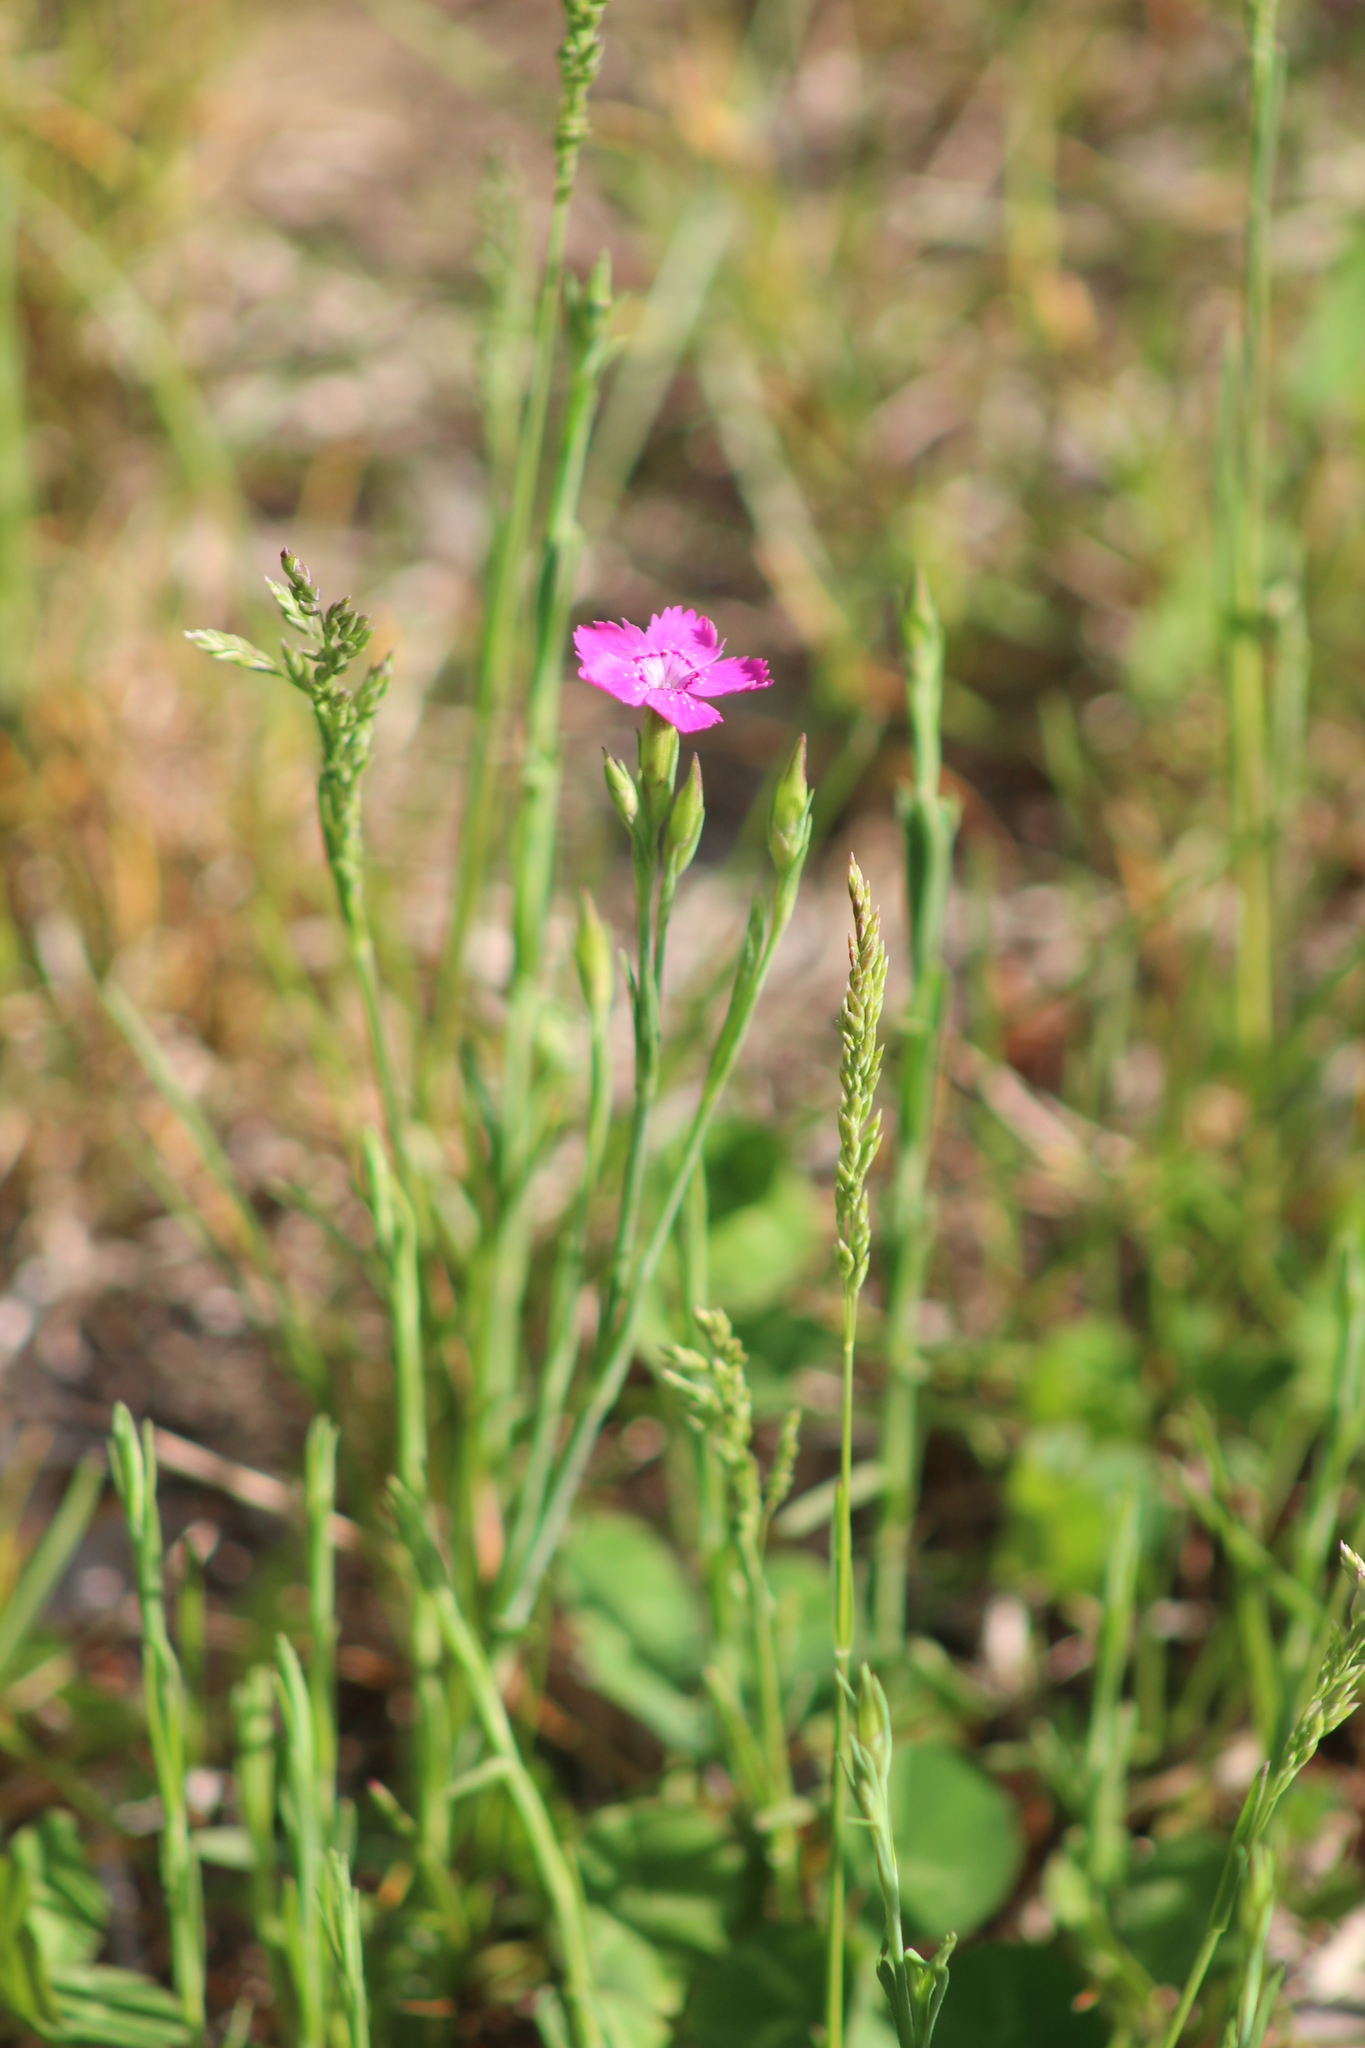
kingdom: Plantae
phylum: Tracheophyta
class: Magnoliopsida
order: Caryophyllales
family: Caryophyllaceae
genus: Dianthus
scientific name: Dianthus deltoides
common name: Maiden pink
